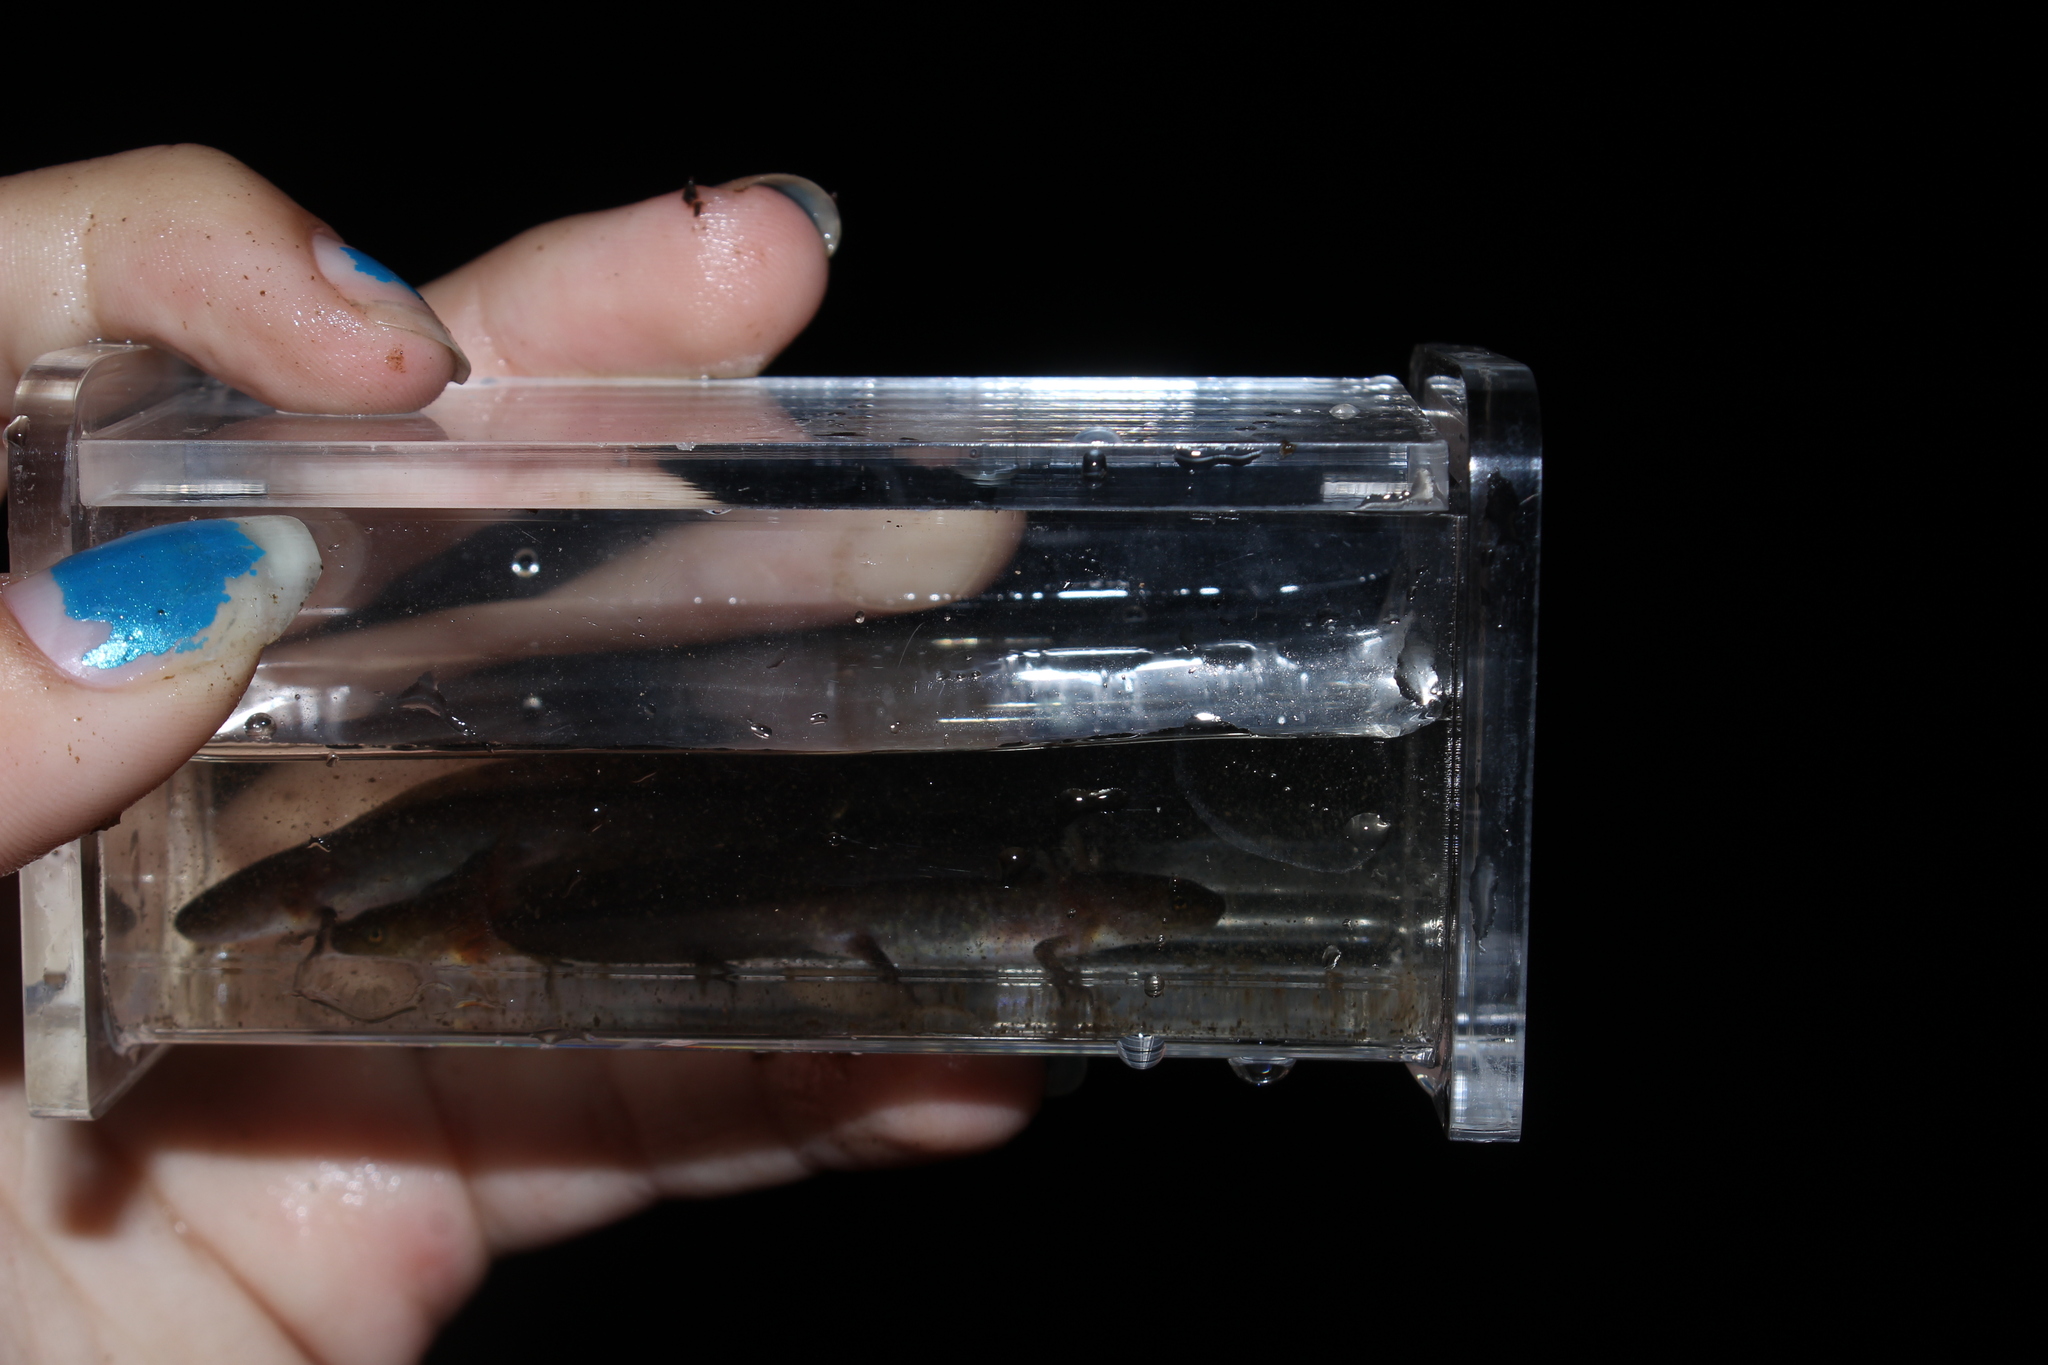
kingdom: Animalia
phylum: Chordata
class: Amphibia
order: Caudata
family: Ambystomatidae
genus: Ambystoma
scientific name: Ambystoma maculatum
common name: Spotted salamander
